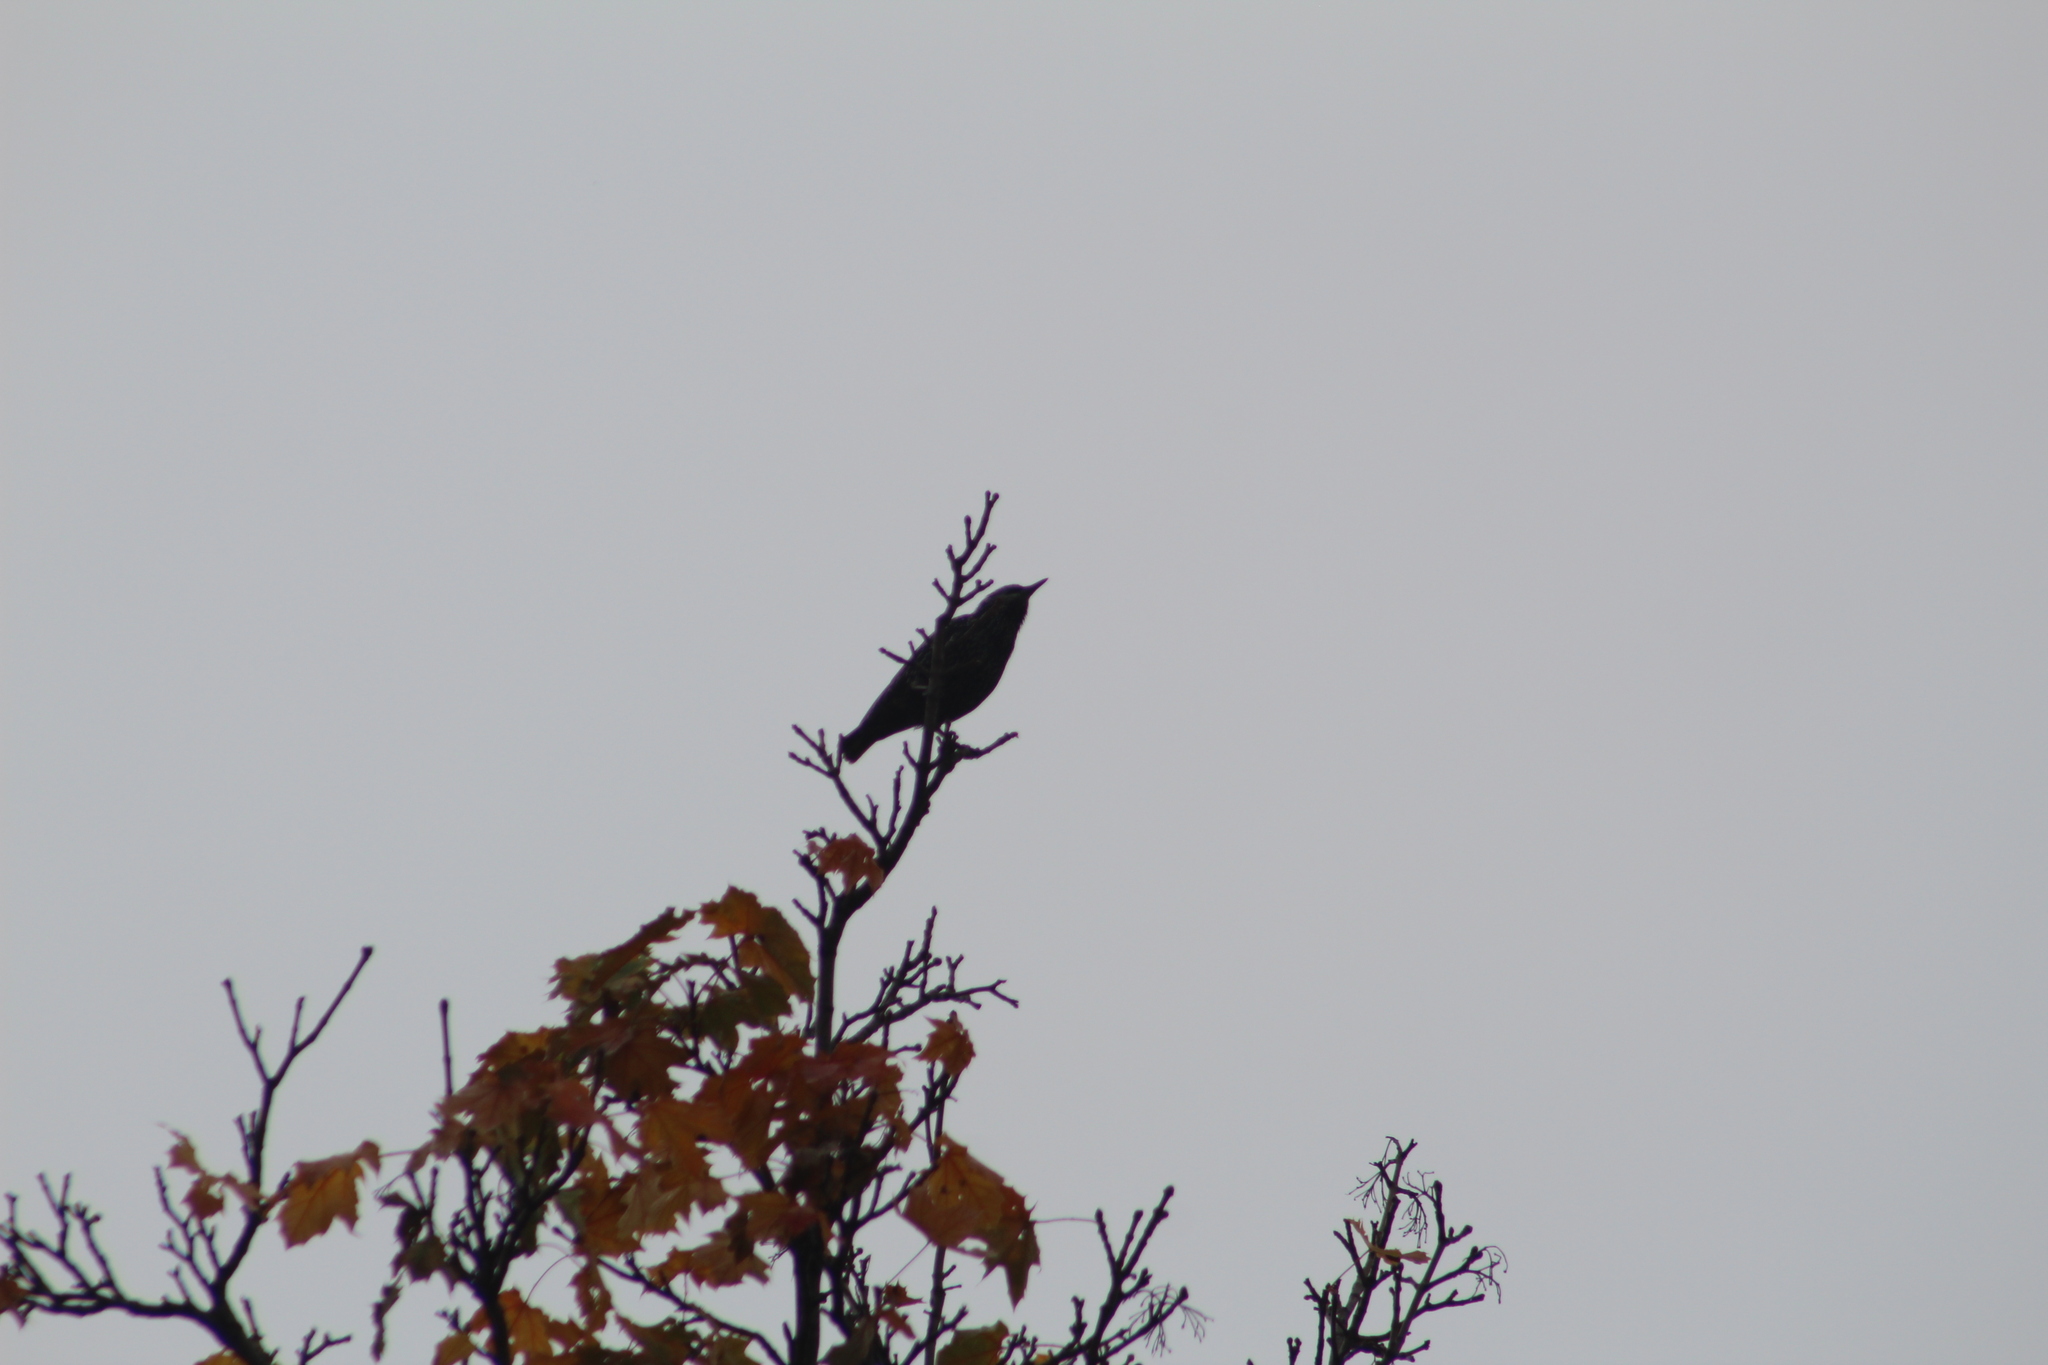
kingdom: Animalia
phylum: Chordata
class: Aves
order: Passeriformes
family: Sturnidae
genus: Sturnus
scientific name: Sturnus vulgaris
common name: Common starling
